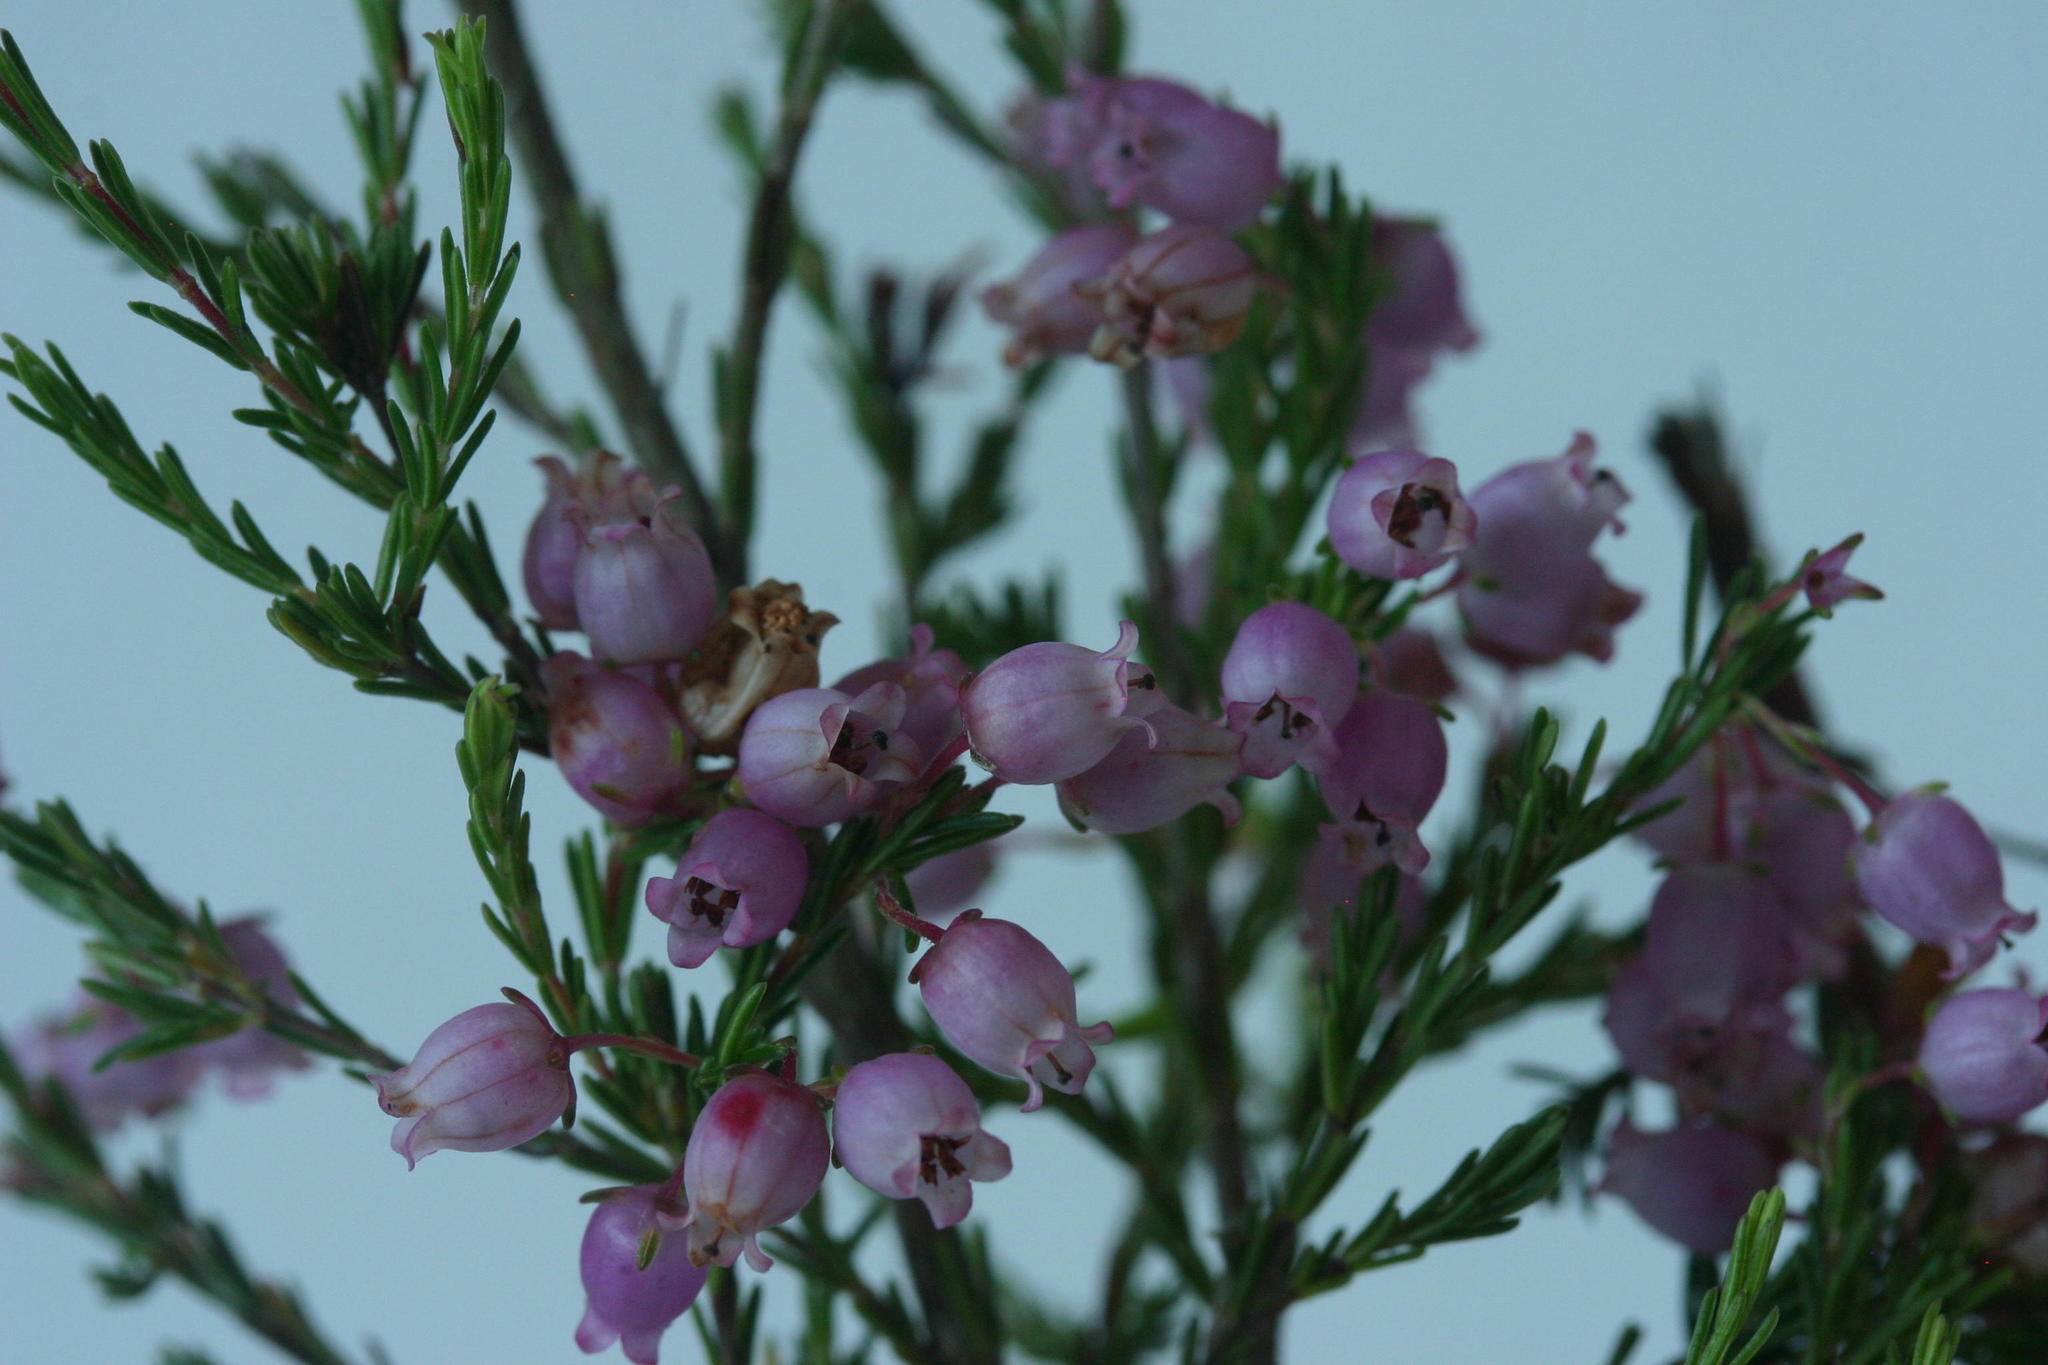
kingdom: Plantae
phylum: Tracheophyta
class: Magnoliopsida
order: Ericales
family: Ericaceae
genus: Erica
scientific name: Erica gracilis
